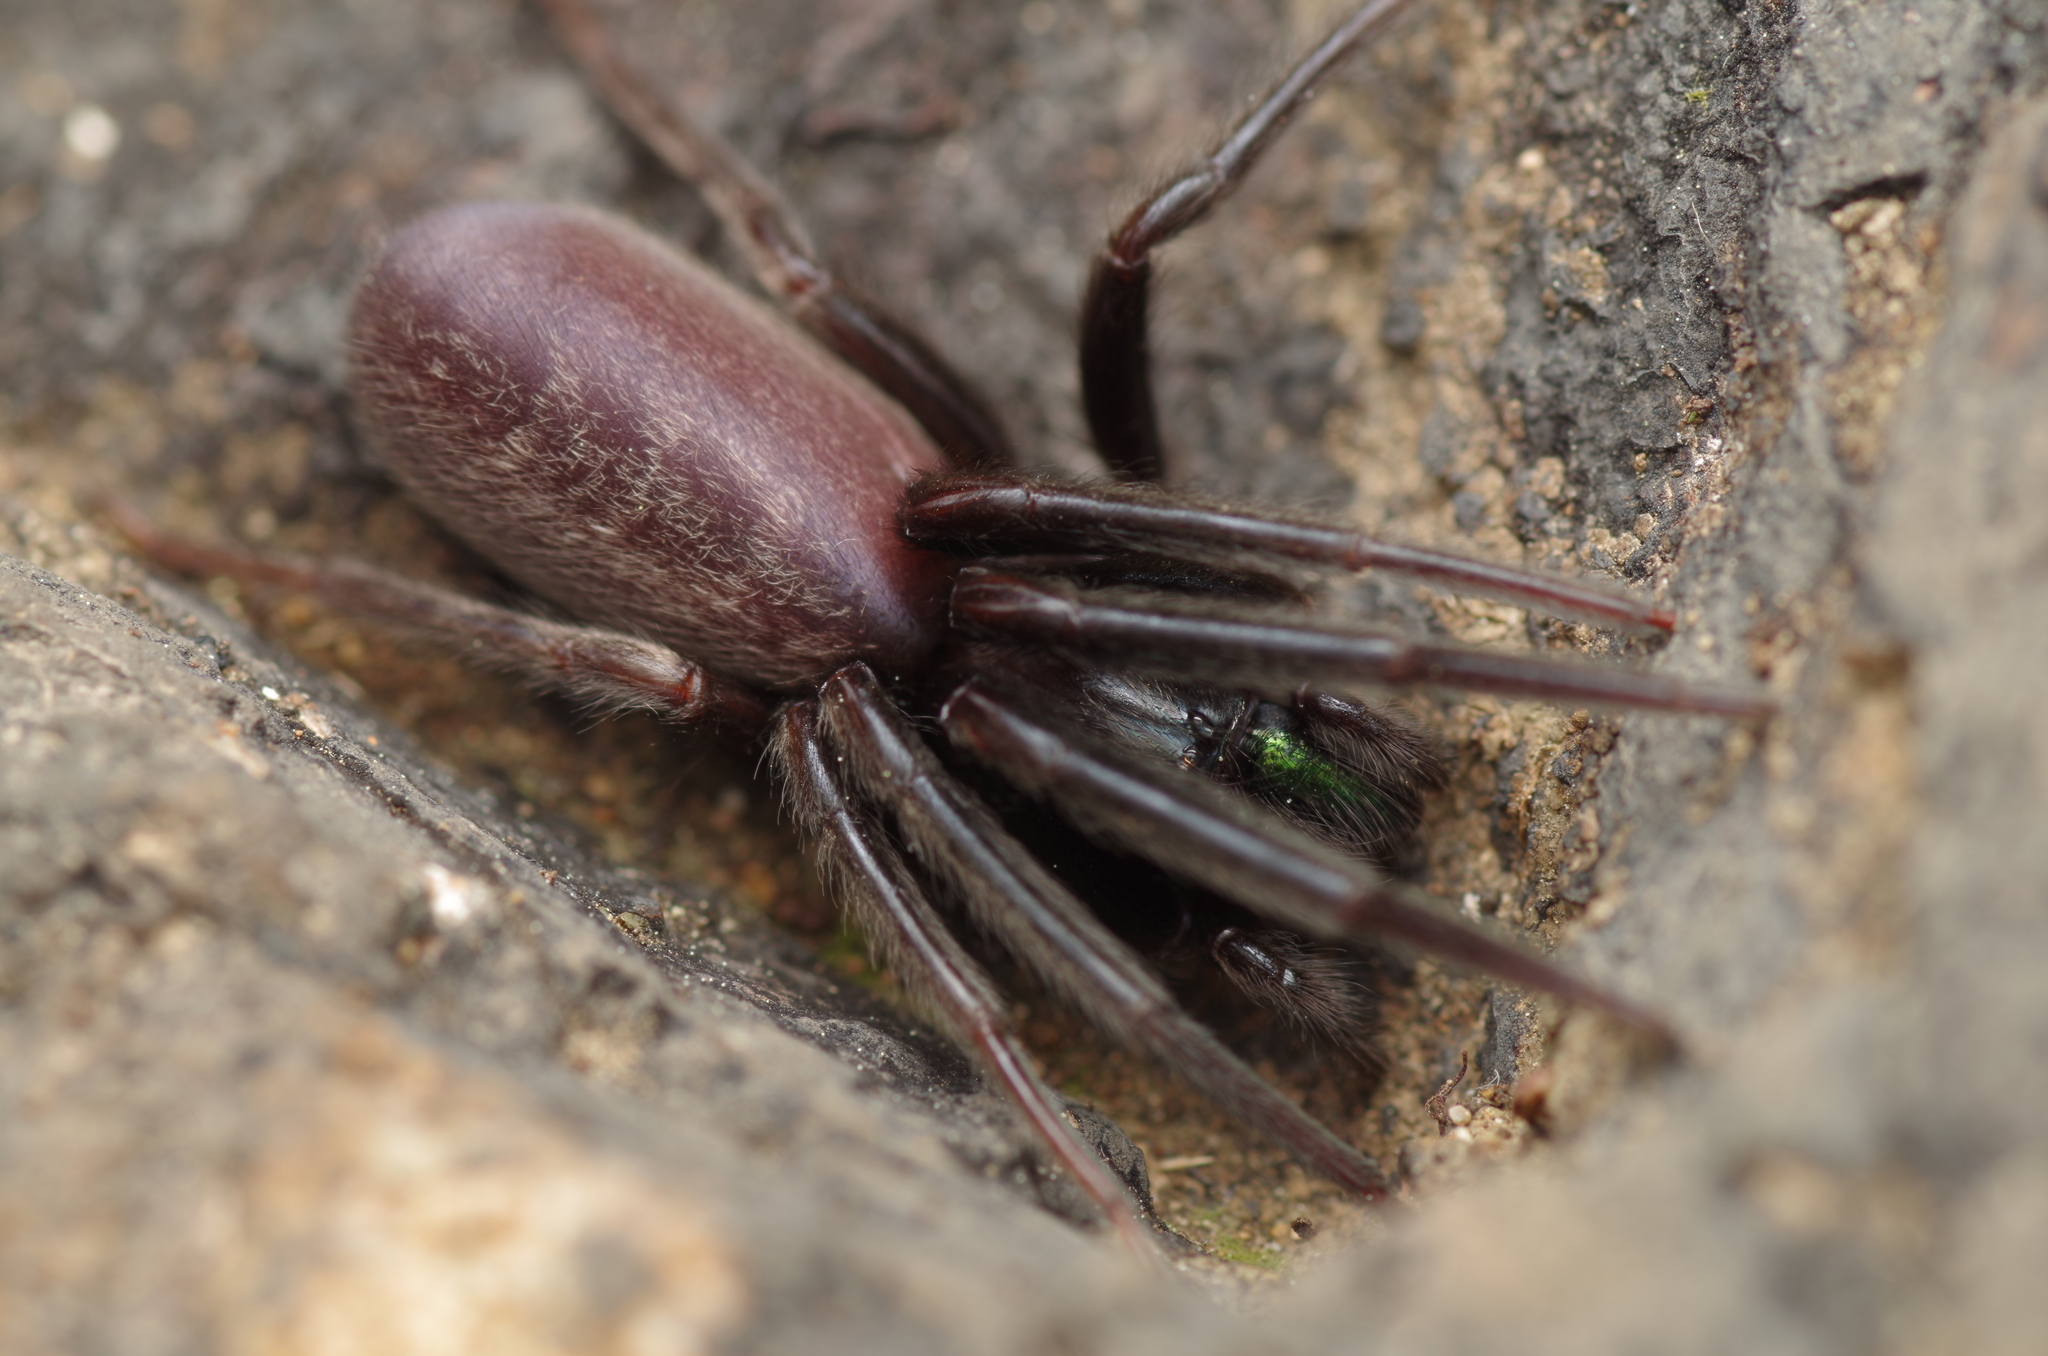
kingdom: Animalia
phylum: Arthropoda
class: Arachnida
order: Araneae
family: Segestriidae
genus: Segestria
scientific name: Segestria florentina
